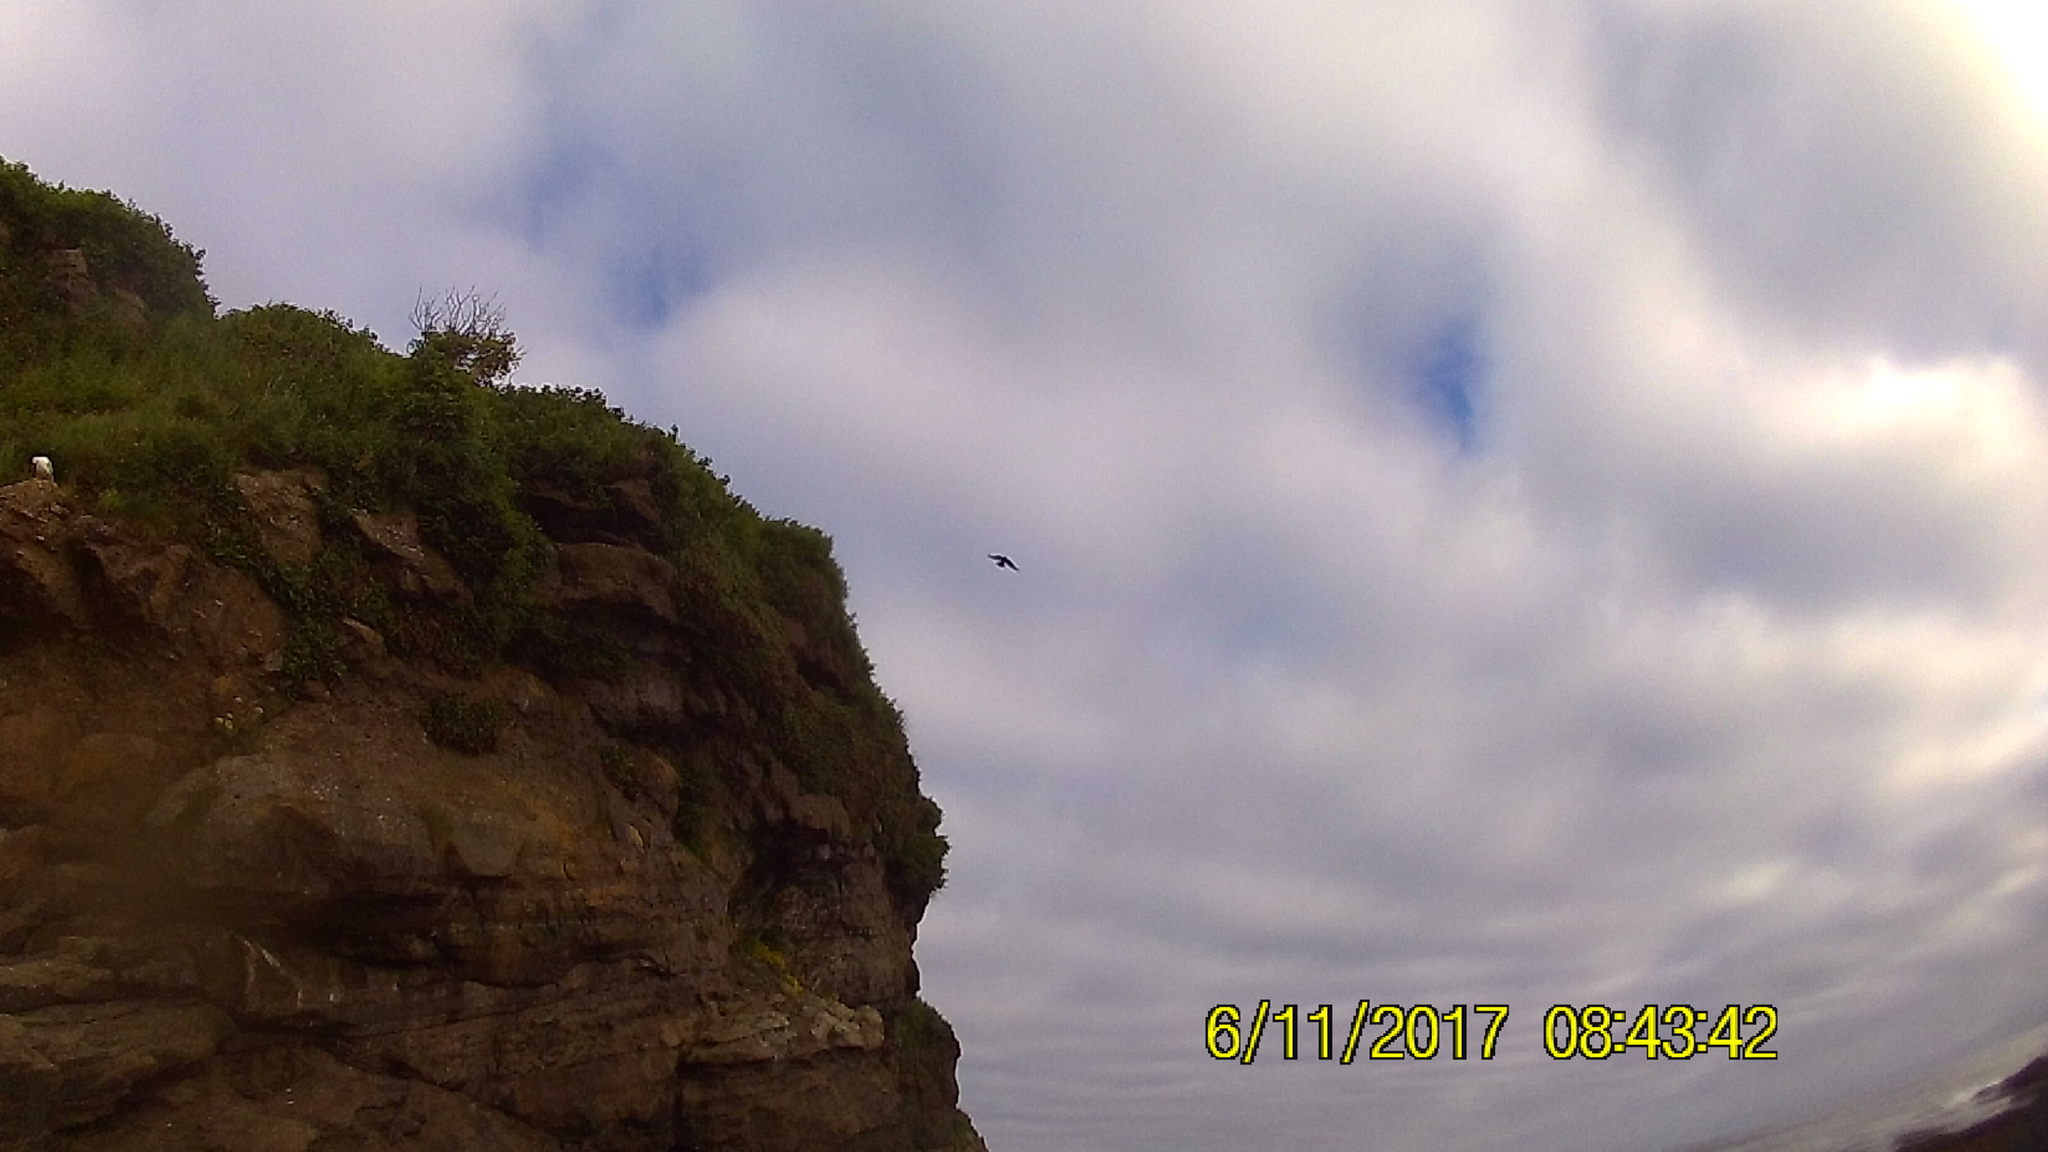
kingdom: Animalia
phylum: Chordata
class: Aves
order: Falconiformes
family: Falconidae
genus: Falco
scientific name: Falco peregrinus
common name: Peregrine falcon
